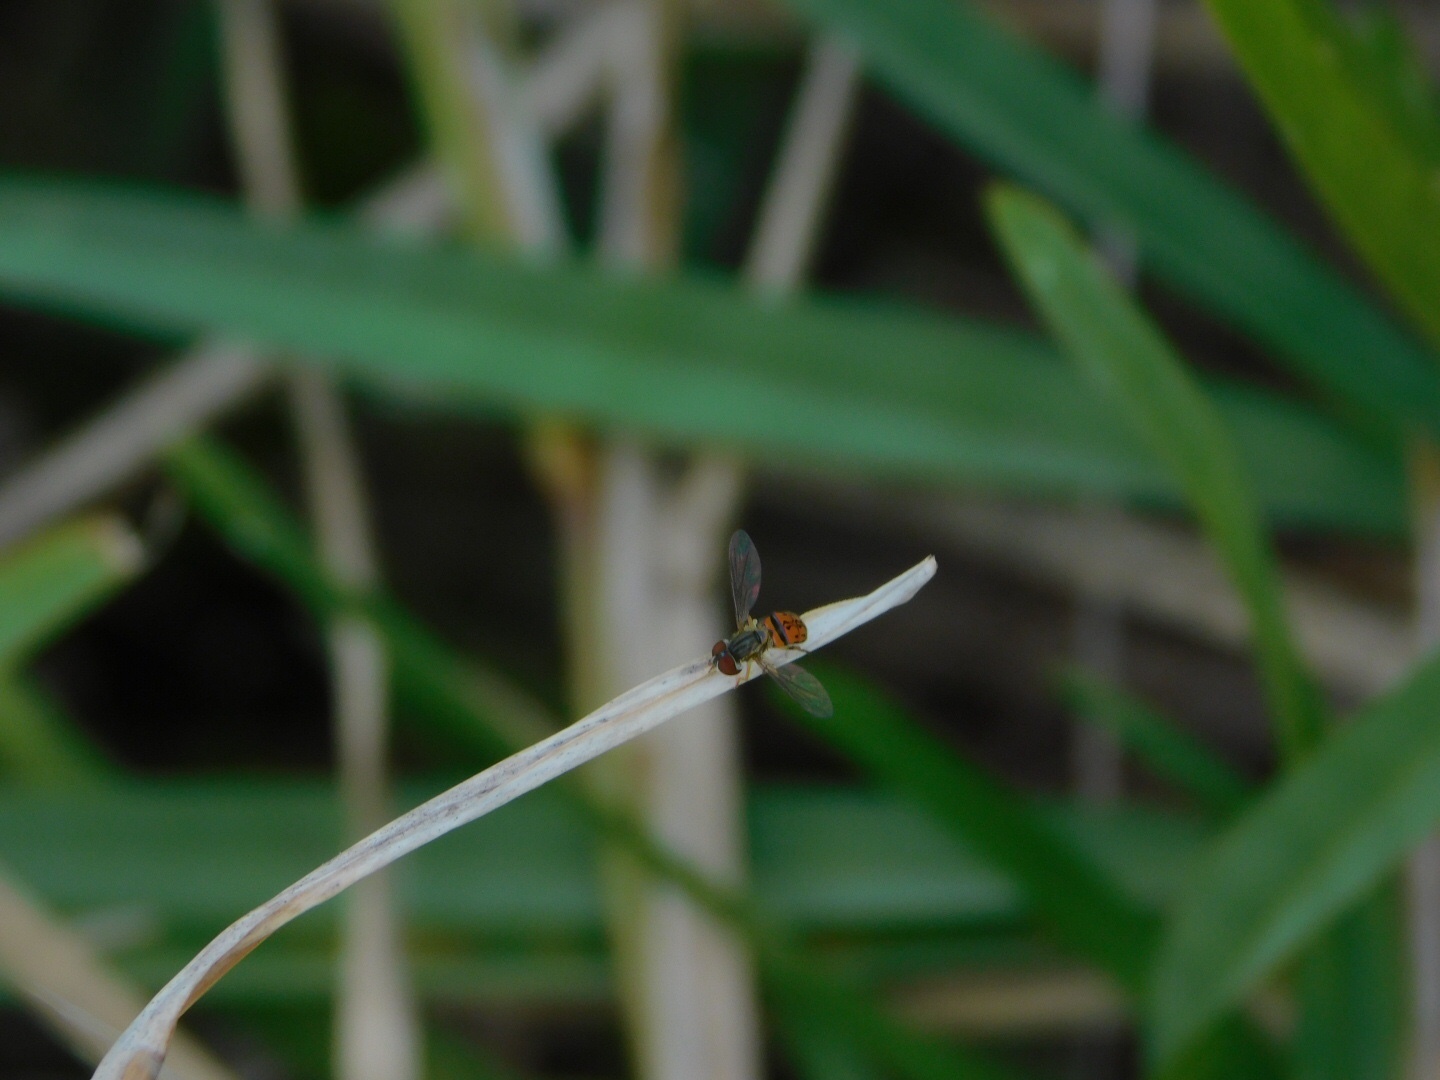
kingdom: Animalia
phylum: Arthropoda
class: Insecta
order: Diptera
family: Syrphidae
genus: Toxomerus
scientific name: Toxomerus boscii
